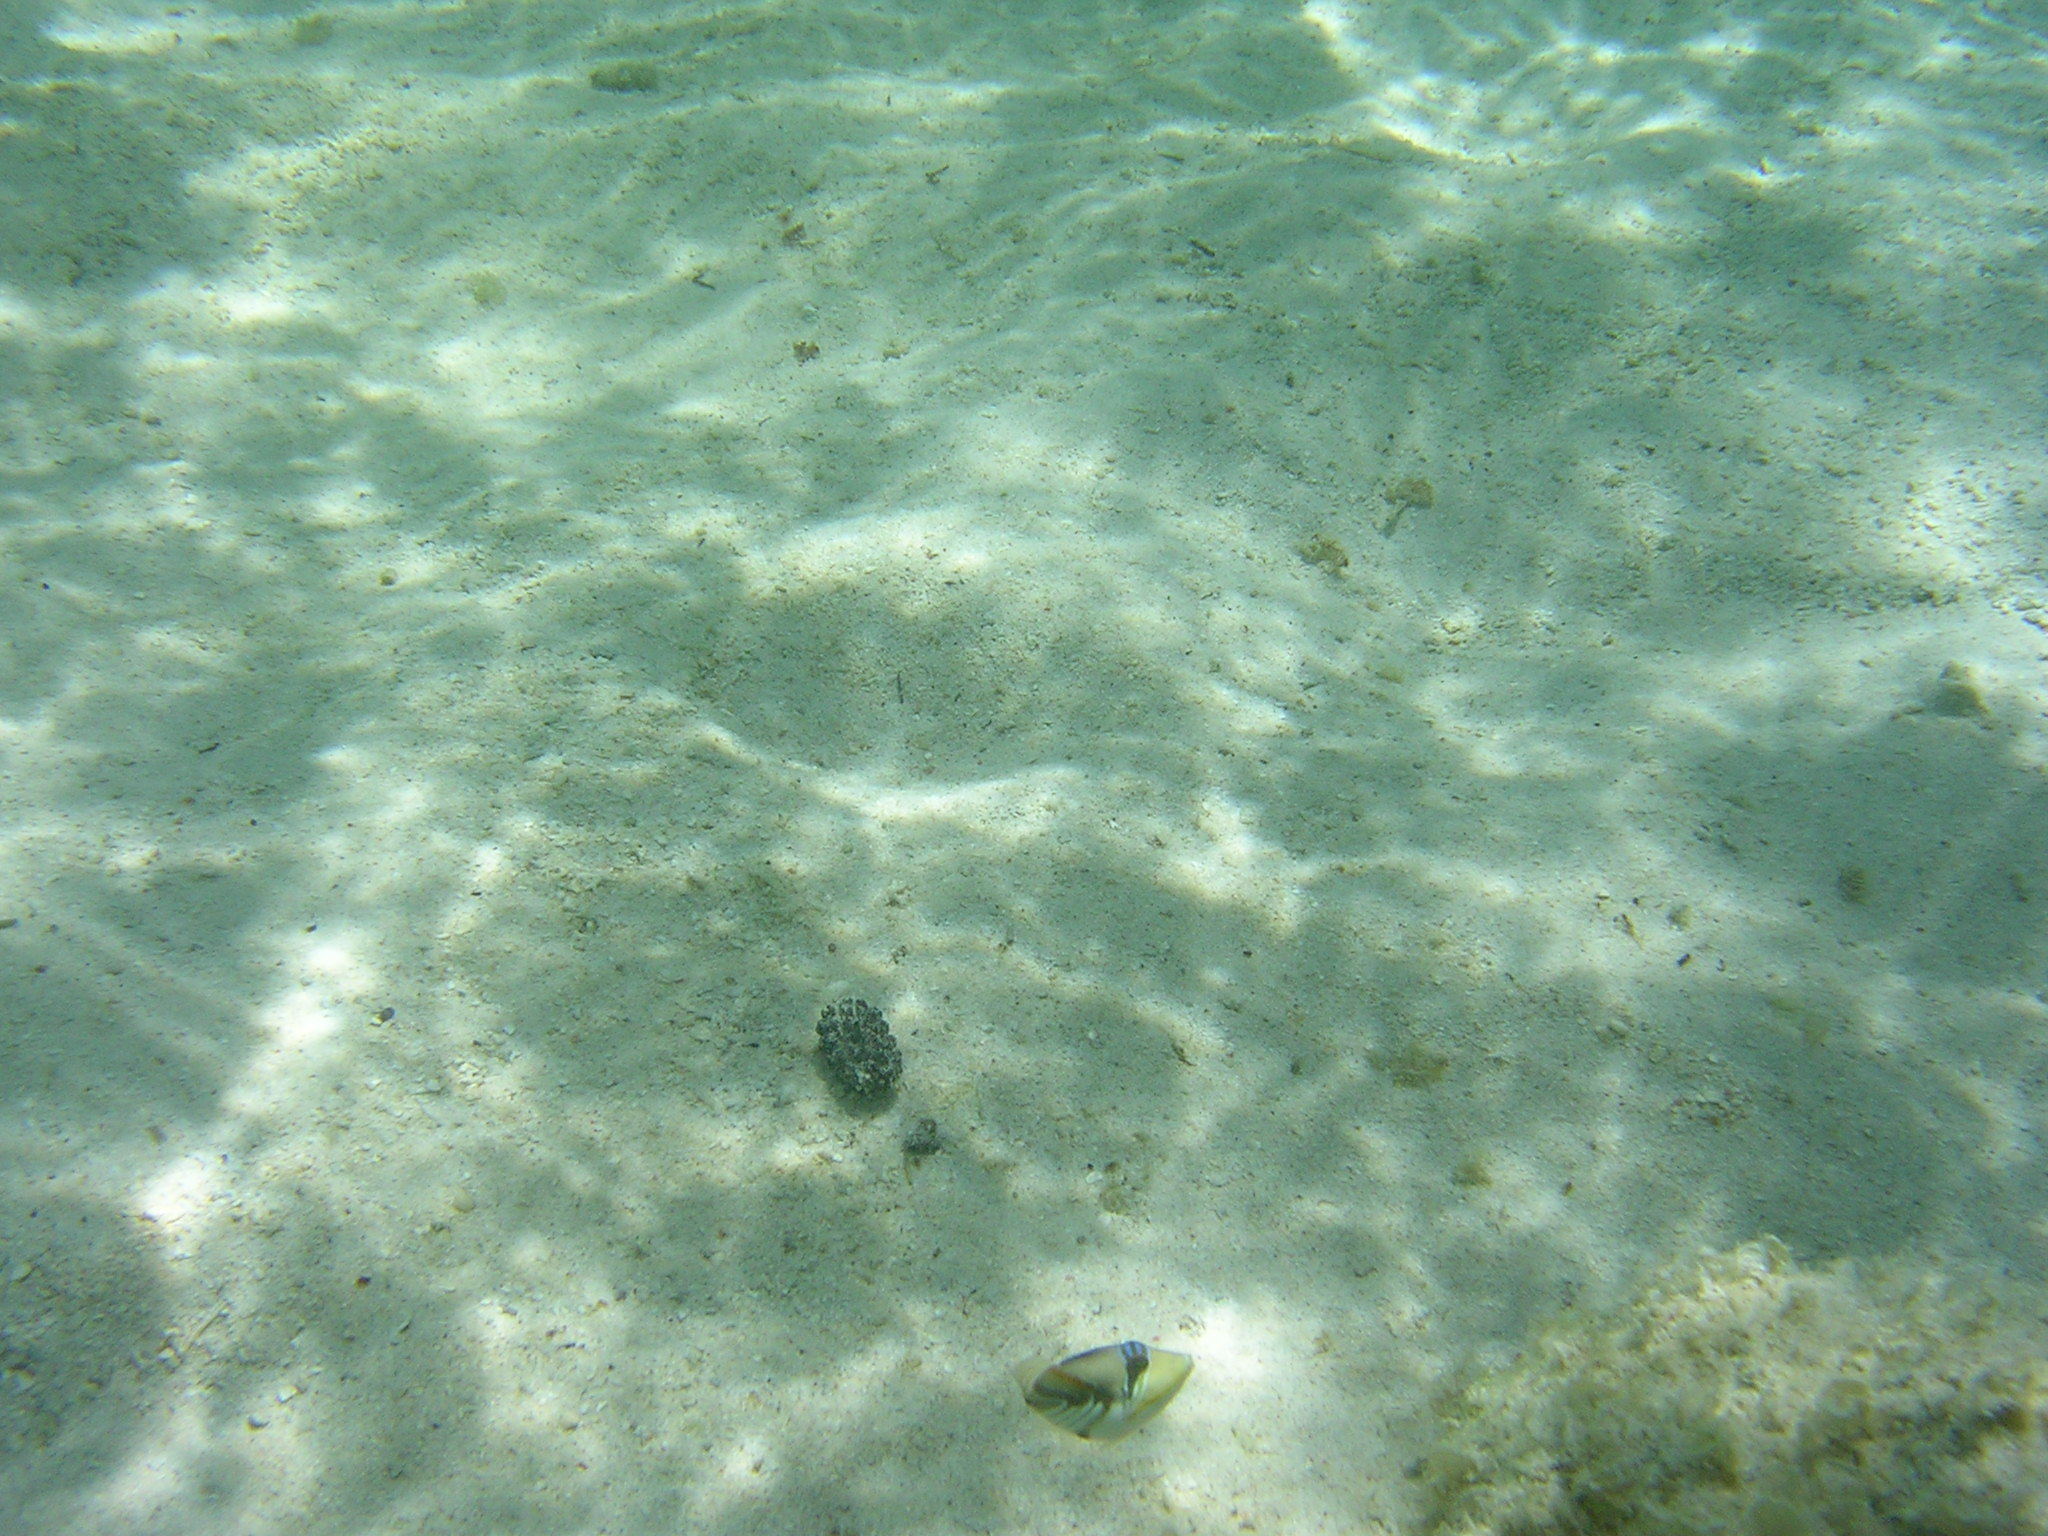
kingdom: Animalia
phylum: Chordata
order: Tetraodontiformes
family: Balistidae
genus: Rhinecanthus
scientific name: Rhinecanthus aculeatus
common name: White-banded triggerfish
